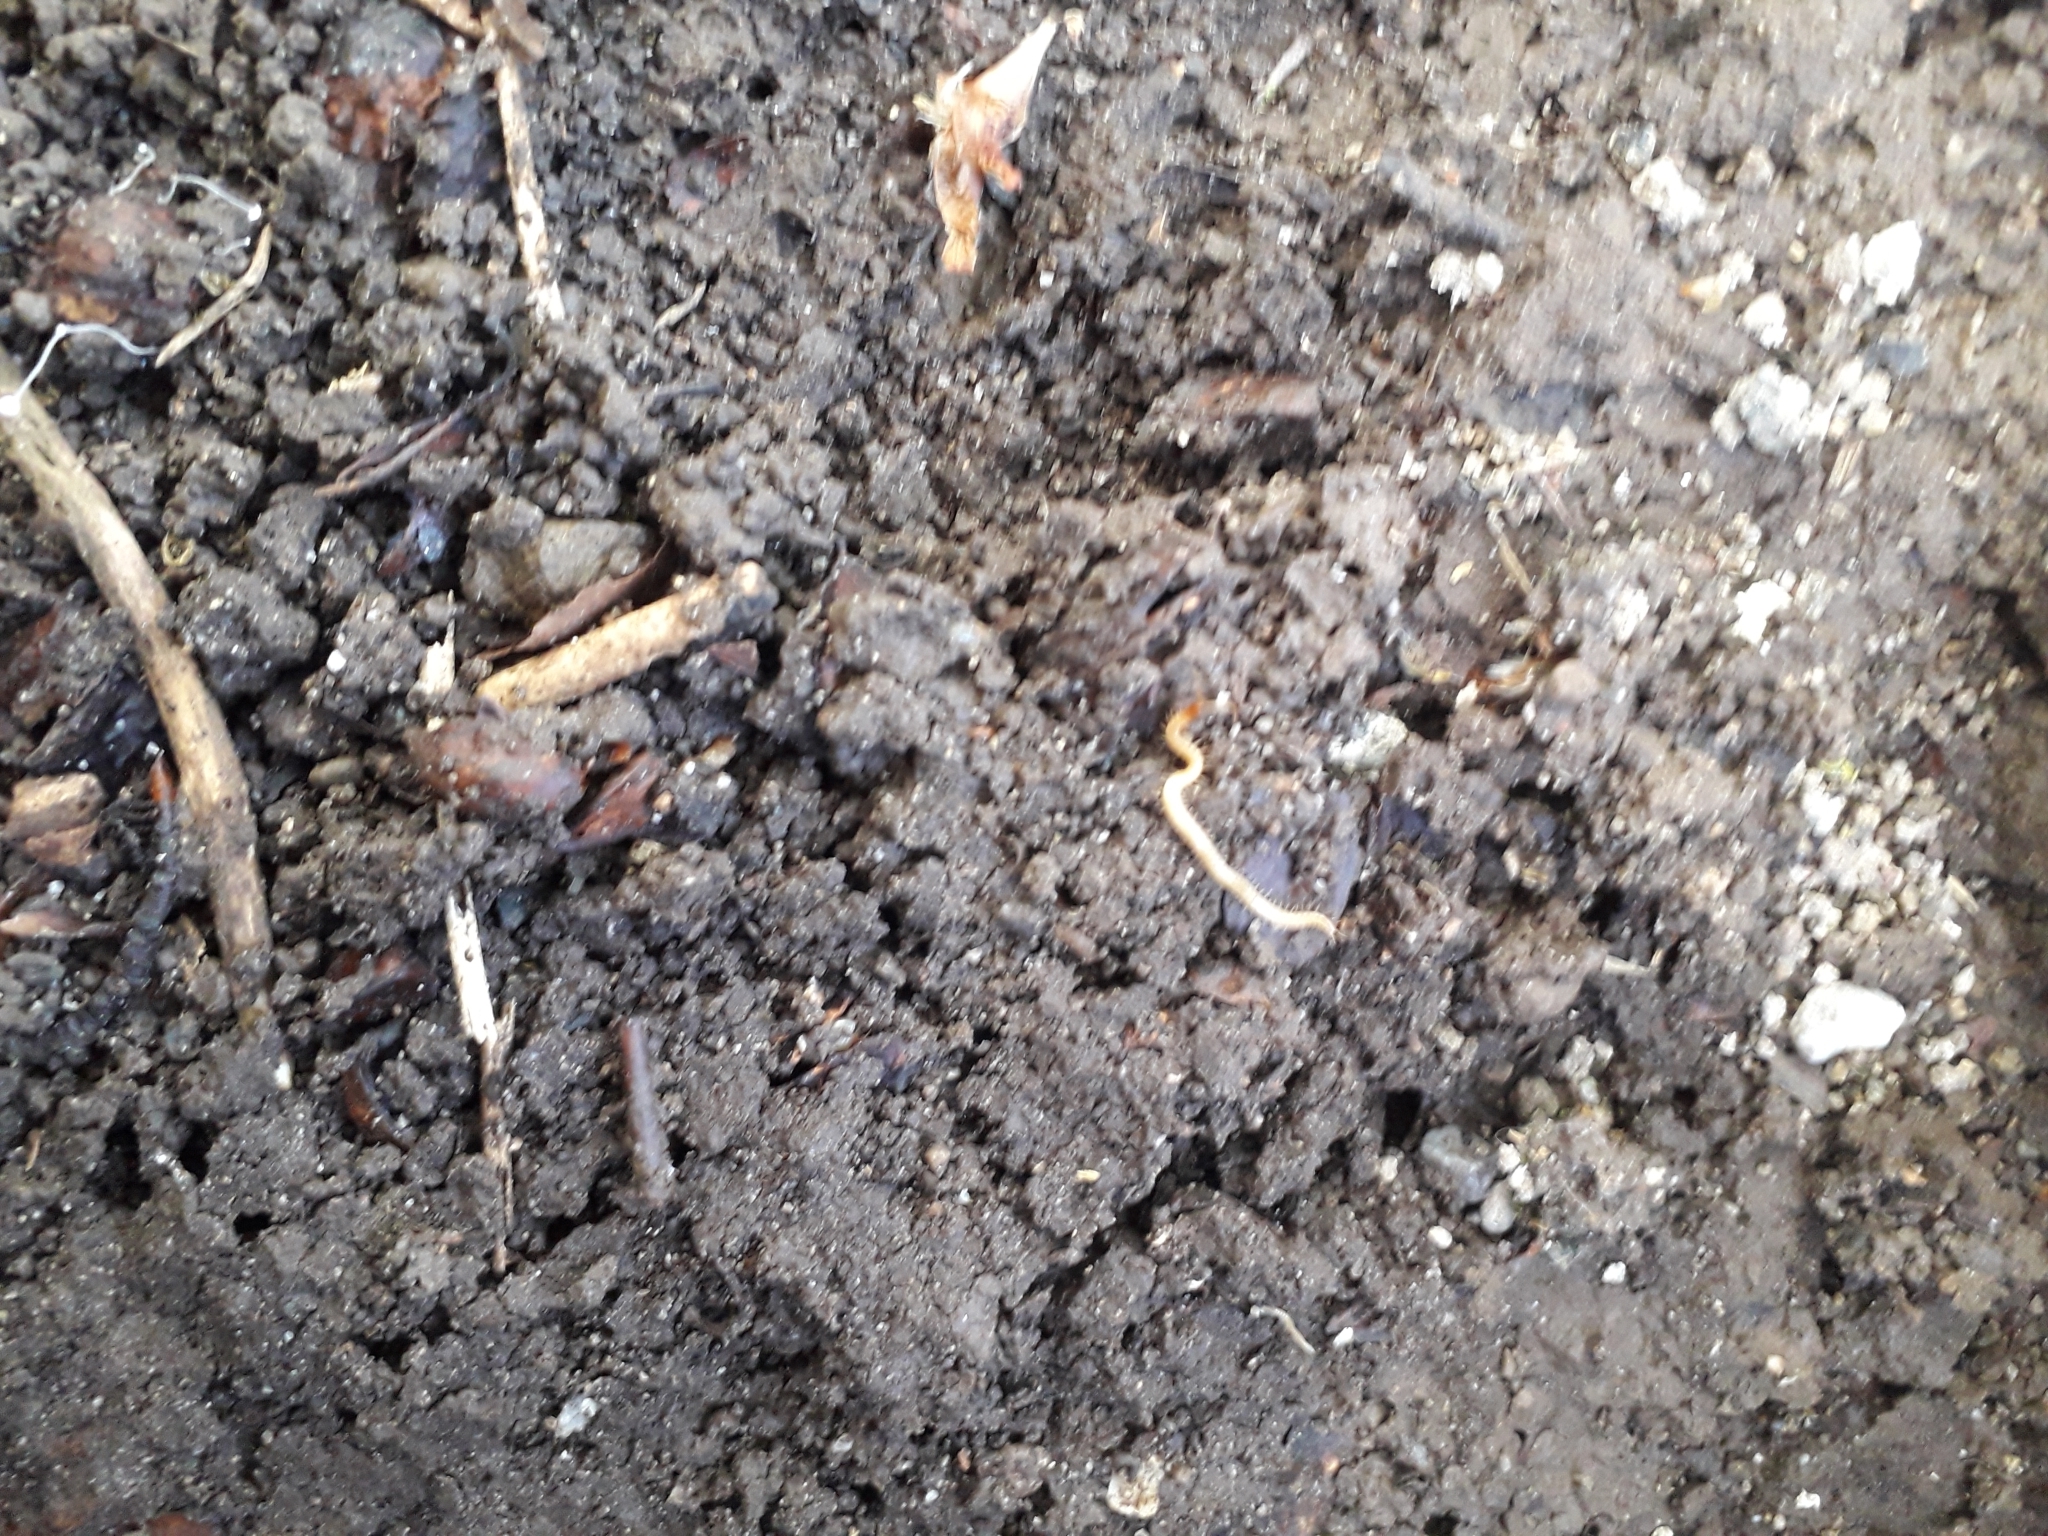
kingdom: Animalia
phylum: Arthropoda
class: Chilopoda
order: Geophilomorpha
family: Geophilidae
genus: Geophilus
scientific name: Geophilus flavus
